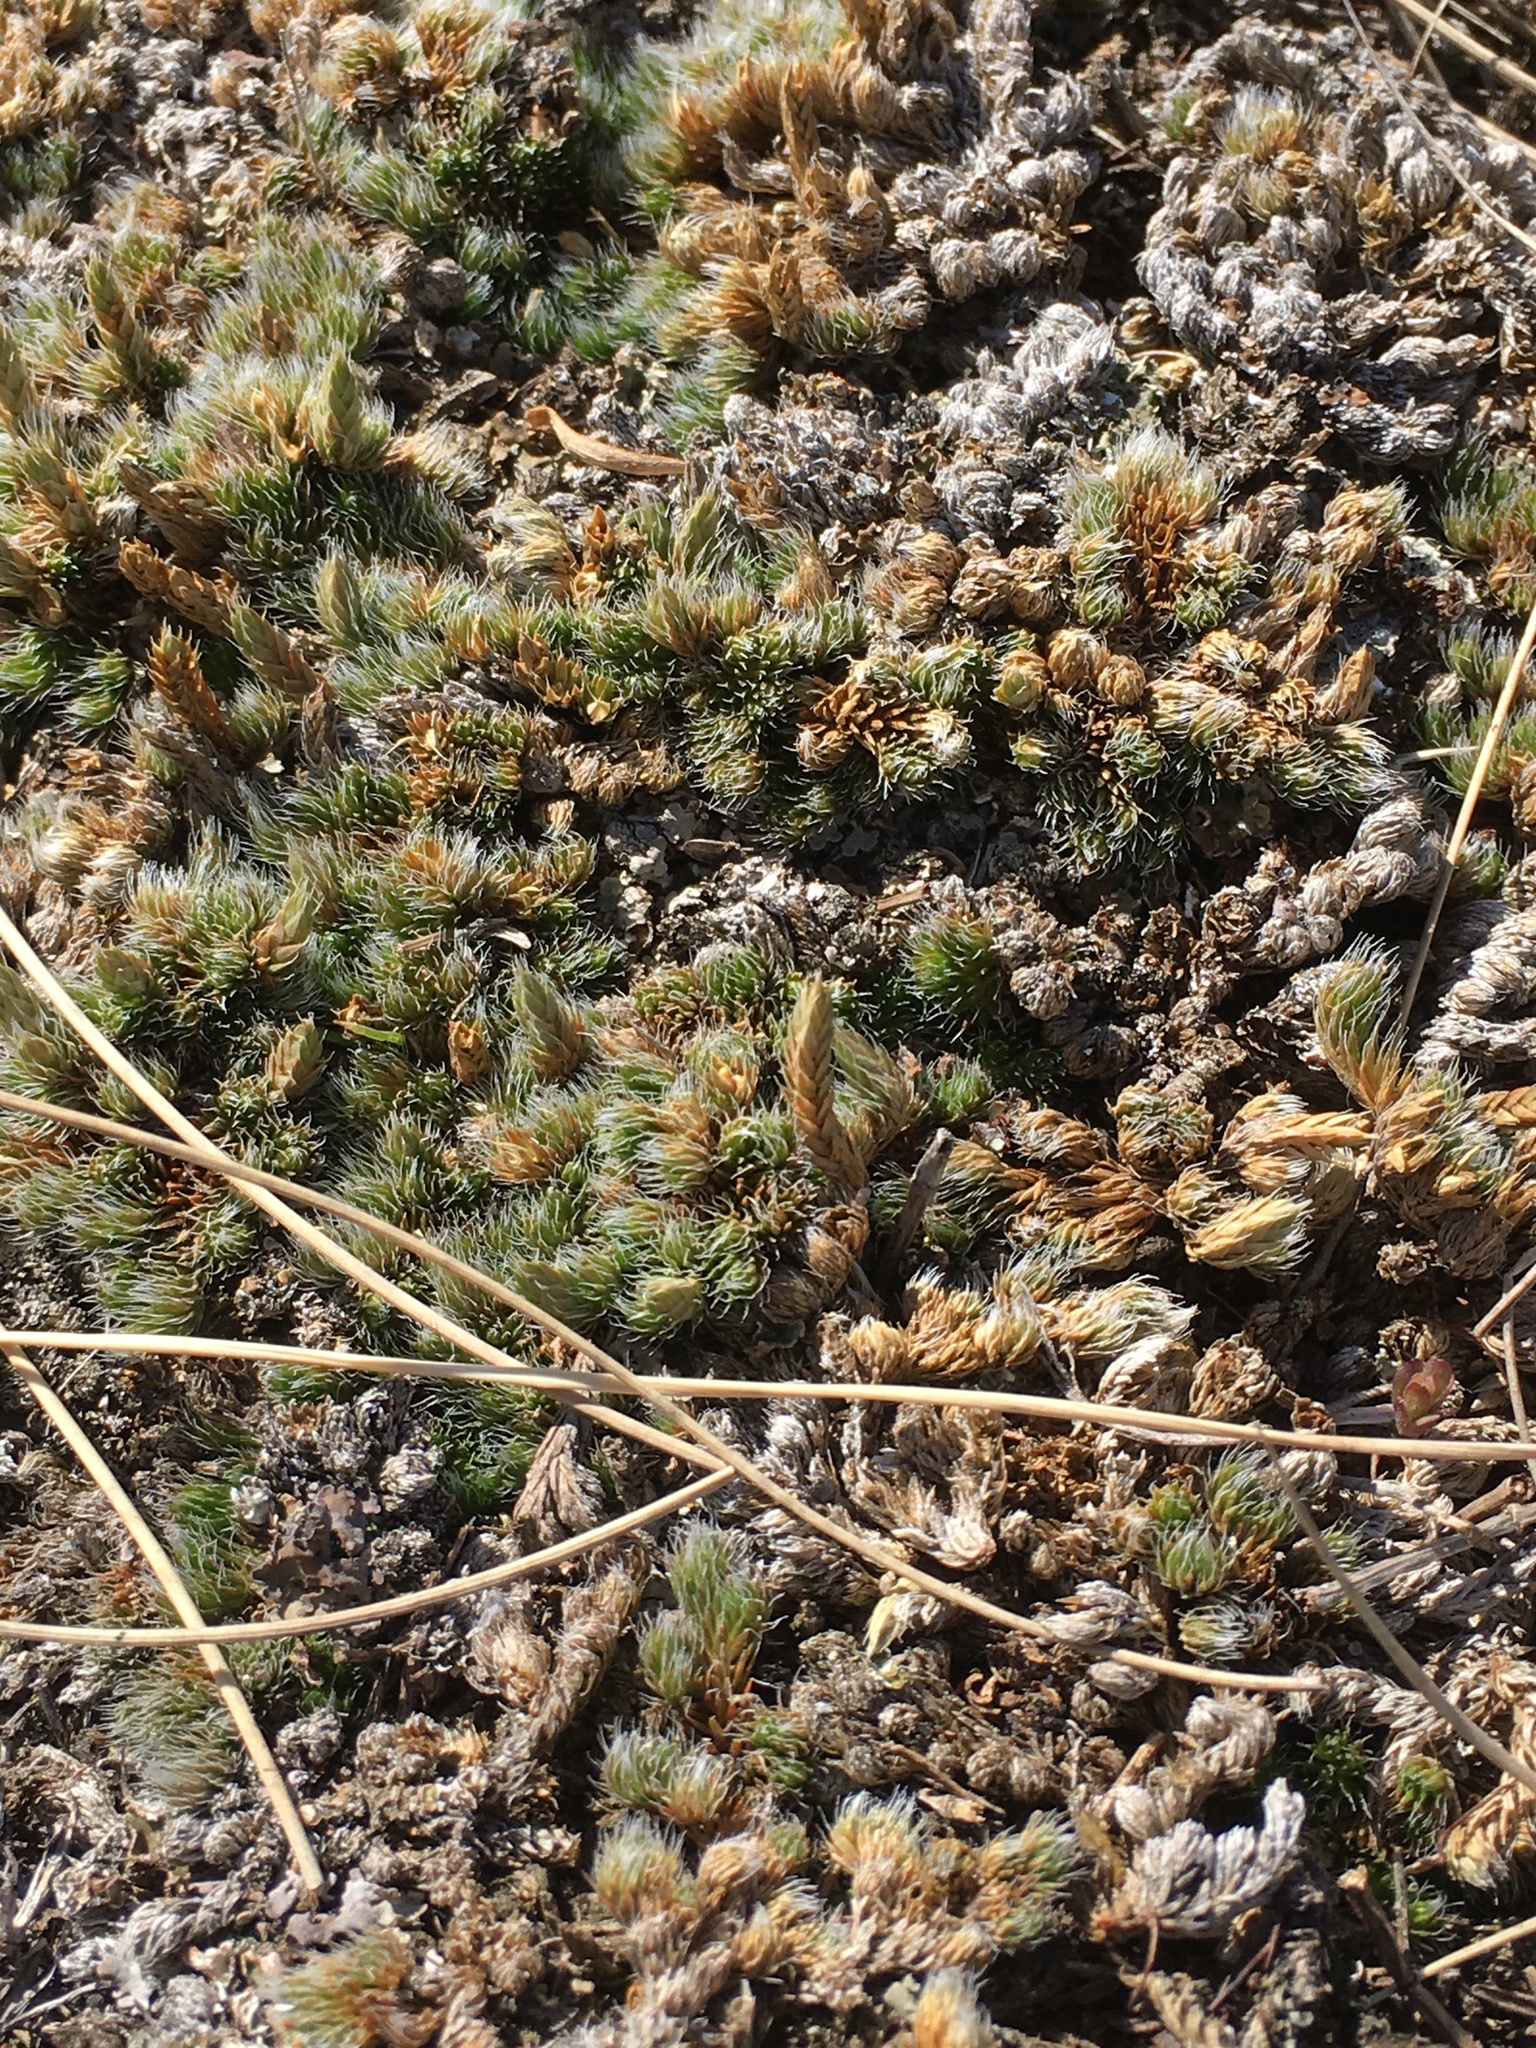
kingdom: Plantae
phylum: Tracheophyta
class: Lycopodiopsida
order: Selaginellales
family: Selaginellaceae
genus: Selaginella
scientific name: Selaginella densa
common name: Mountain spike-moss
